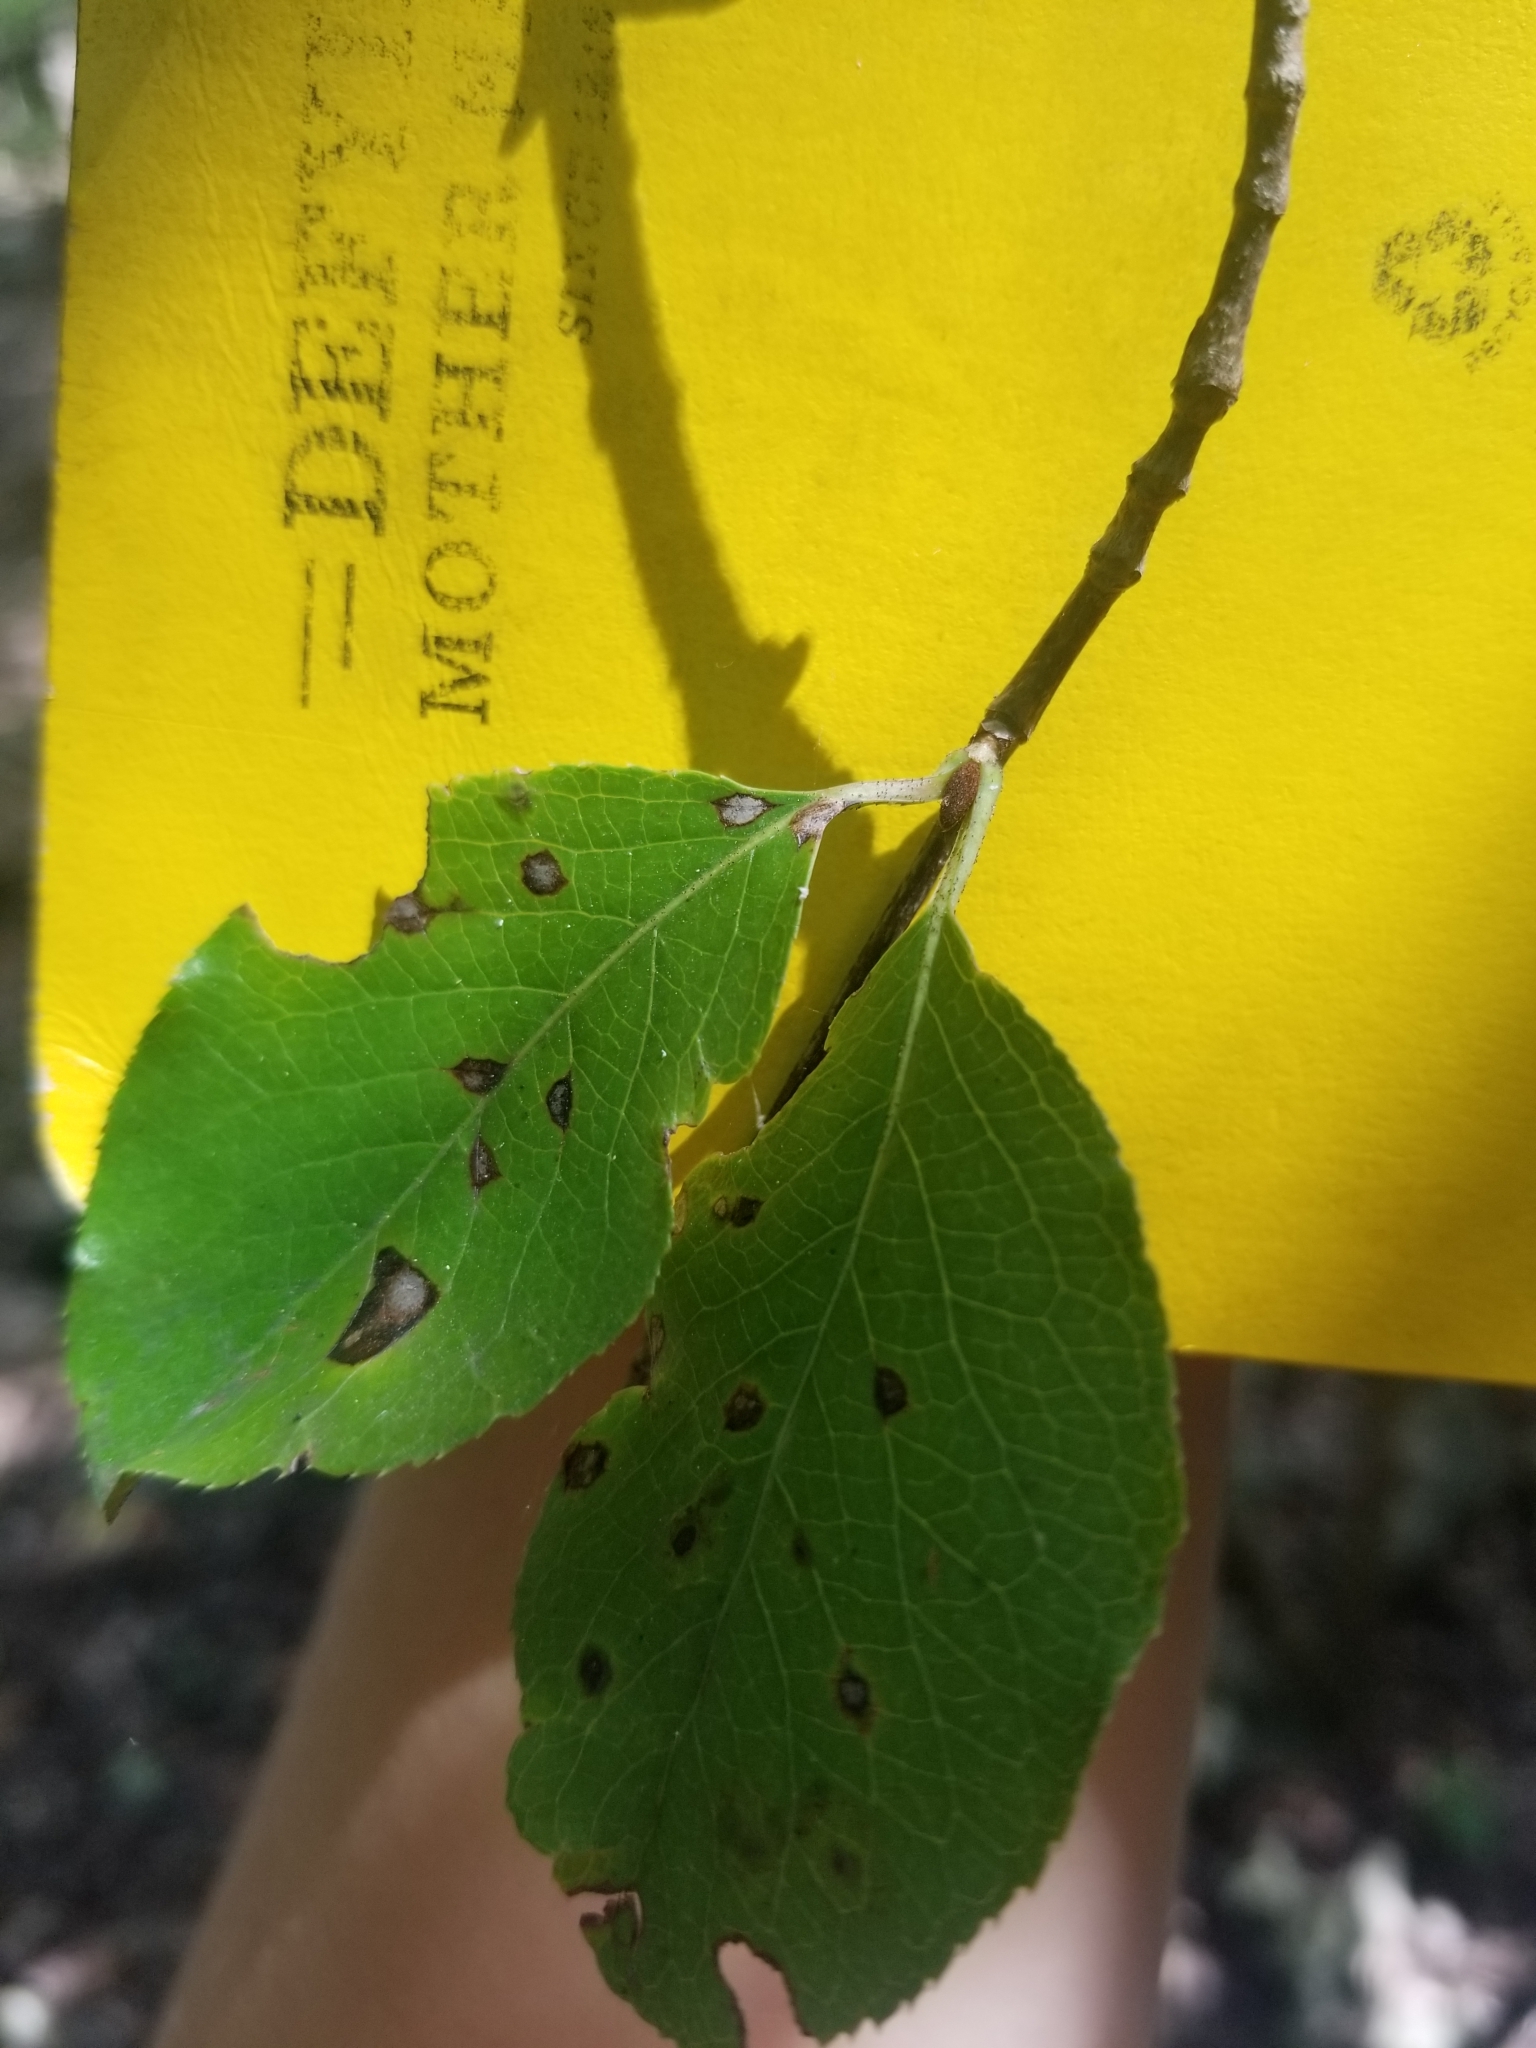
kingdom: Plantae
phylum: Tracheophyta
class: Magnoliopsida
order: Dipsacales
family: Viburnaceae
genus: Viburnum
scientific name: Viburnum rufidulum
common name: Blue haw
